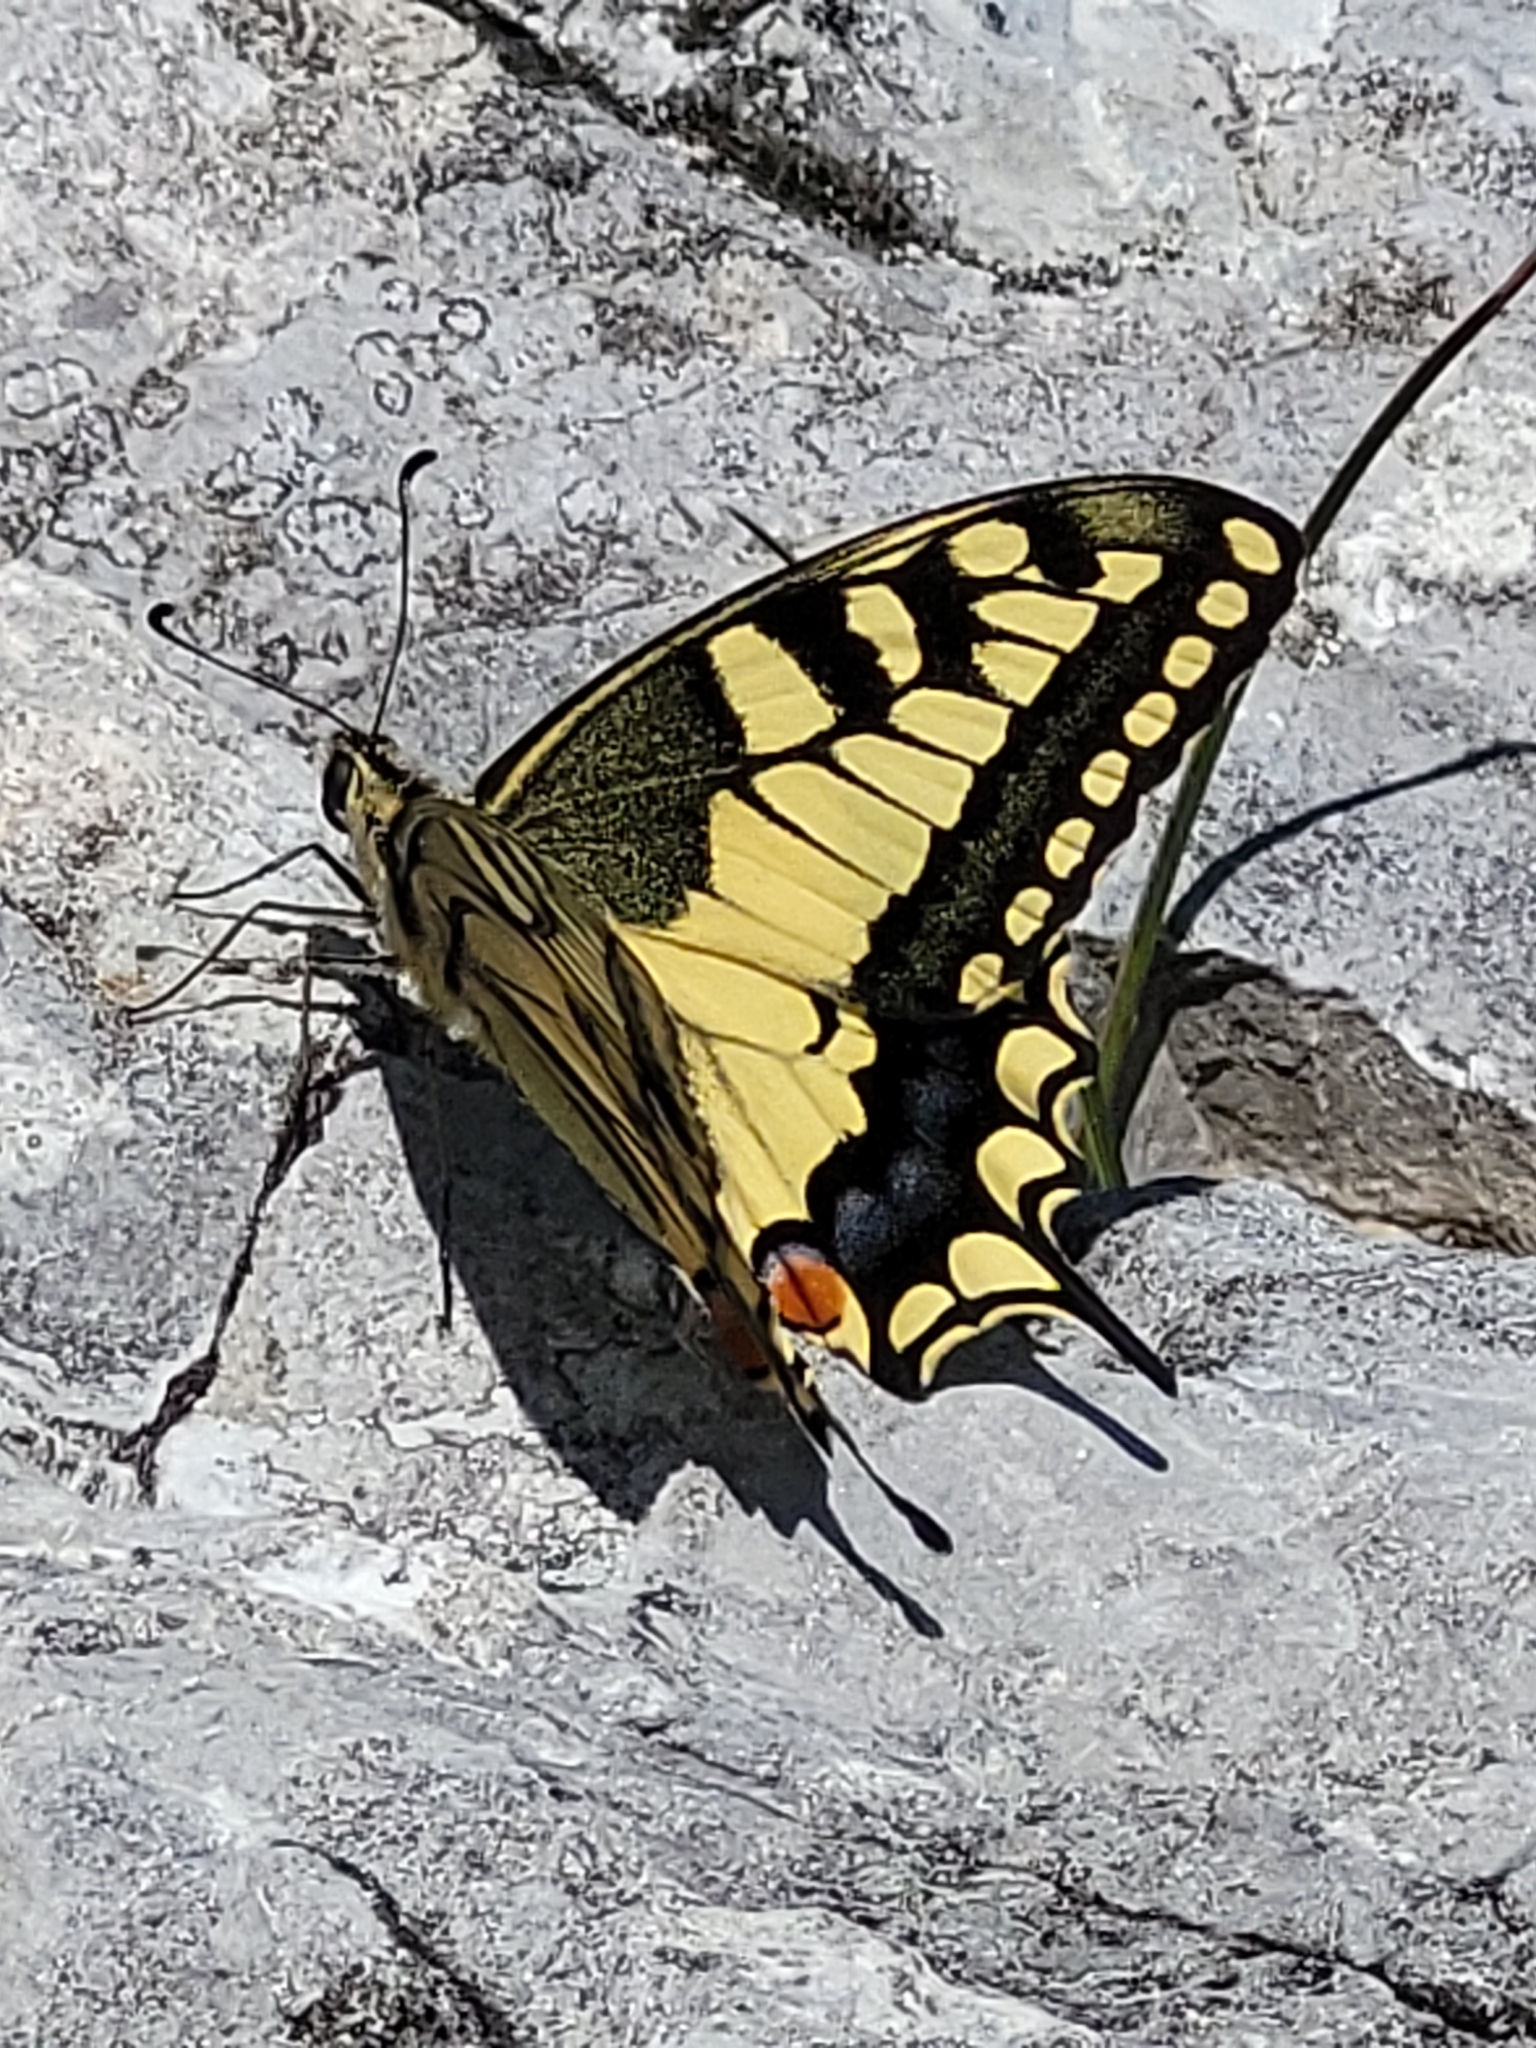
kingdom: Animalia
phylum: Arthropoda
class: Insecta
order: Lepidoptera
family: Papilionidae
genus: Papilio
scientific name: Papilio machaon
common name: Swallowtail
